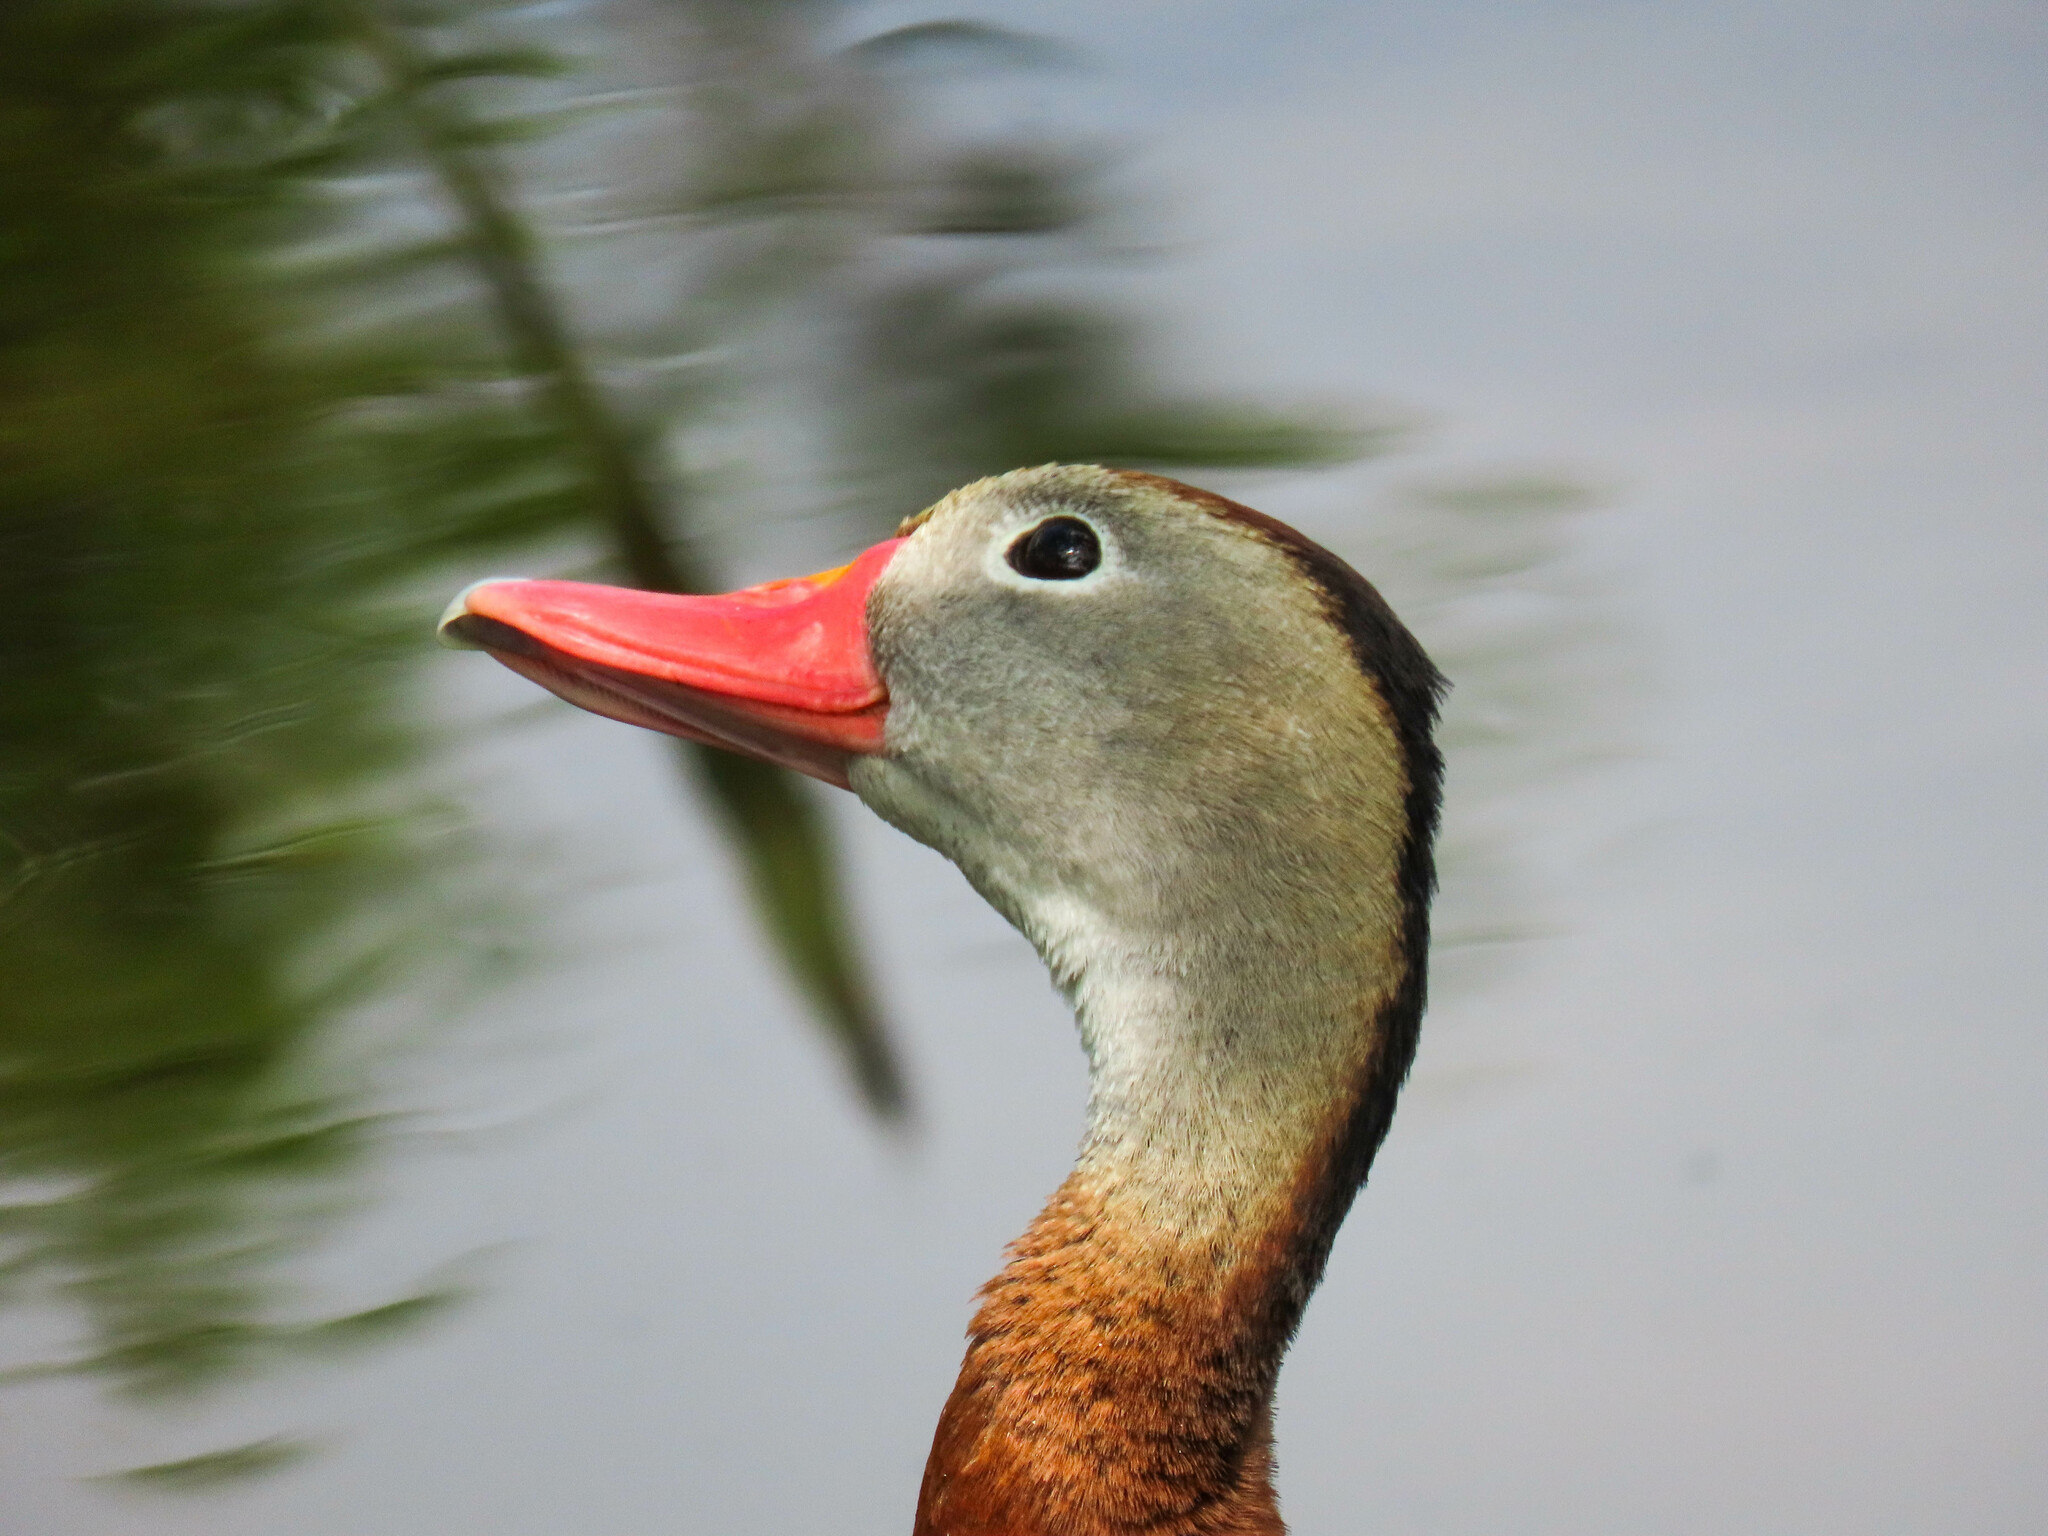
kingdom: Animalia
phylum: Chordata
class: Aves
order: Anseriformes
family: Anatidae
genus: Dendrocygna
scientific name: Dendrocygna autumnalis
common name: Black-bellied whistling duck
